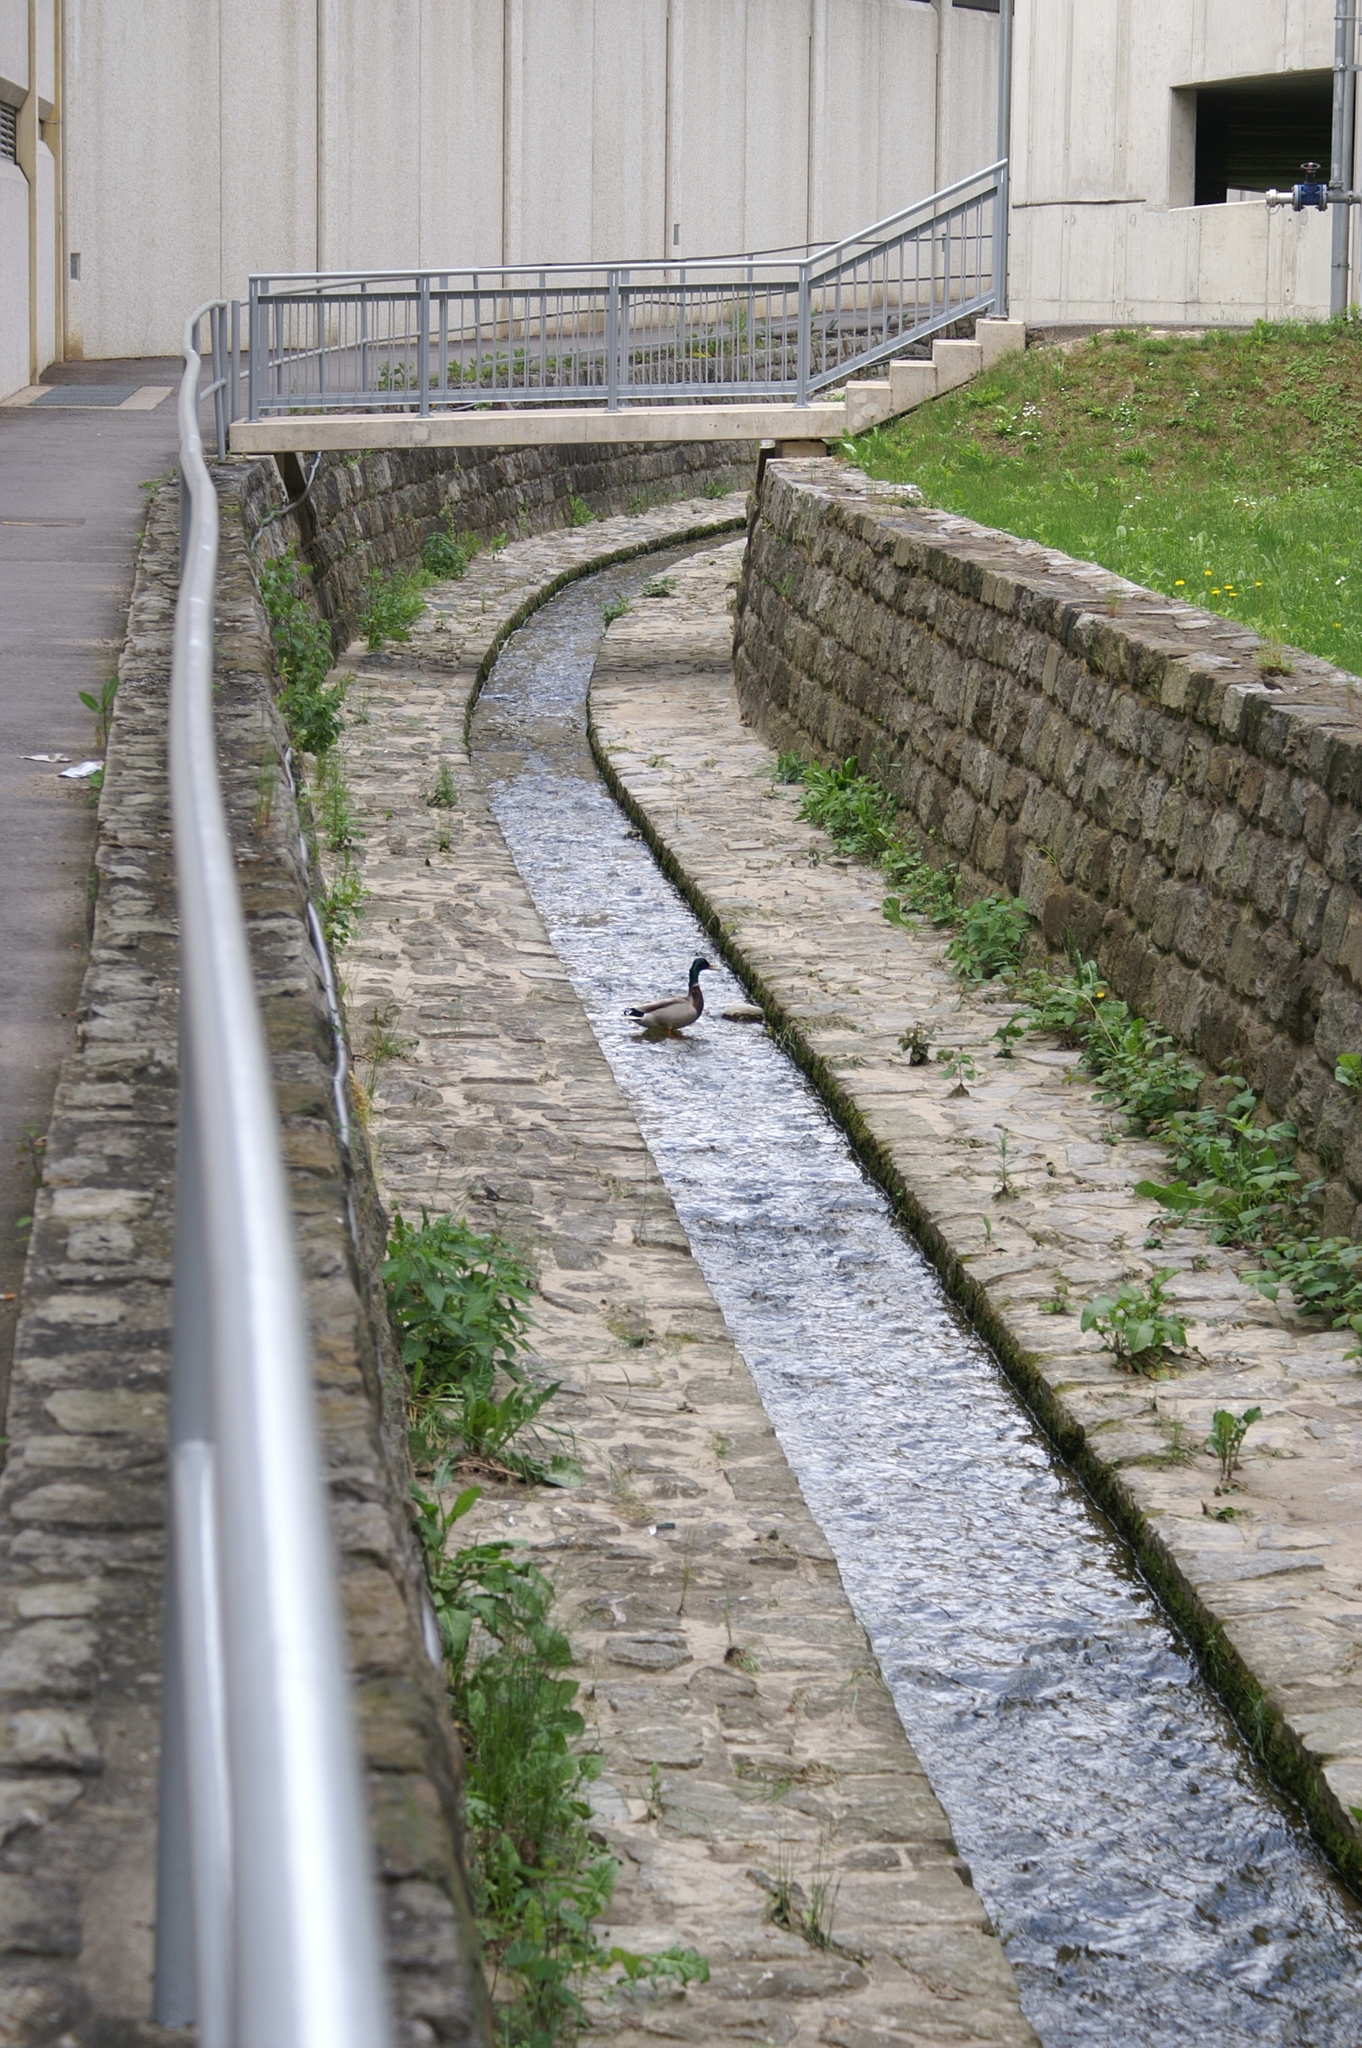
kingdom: Animalia
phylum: Chordata
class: Aves
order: Anseriformes
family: Anatidae
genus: Anas
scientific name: Anas platyrhynchos
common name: Mallard
